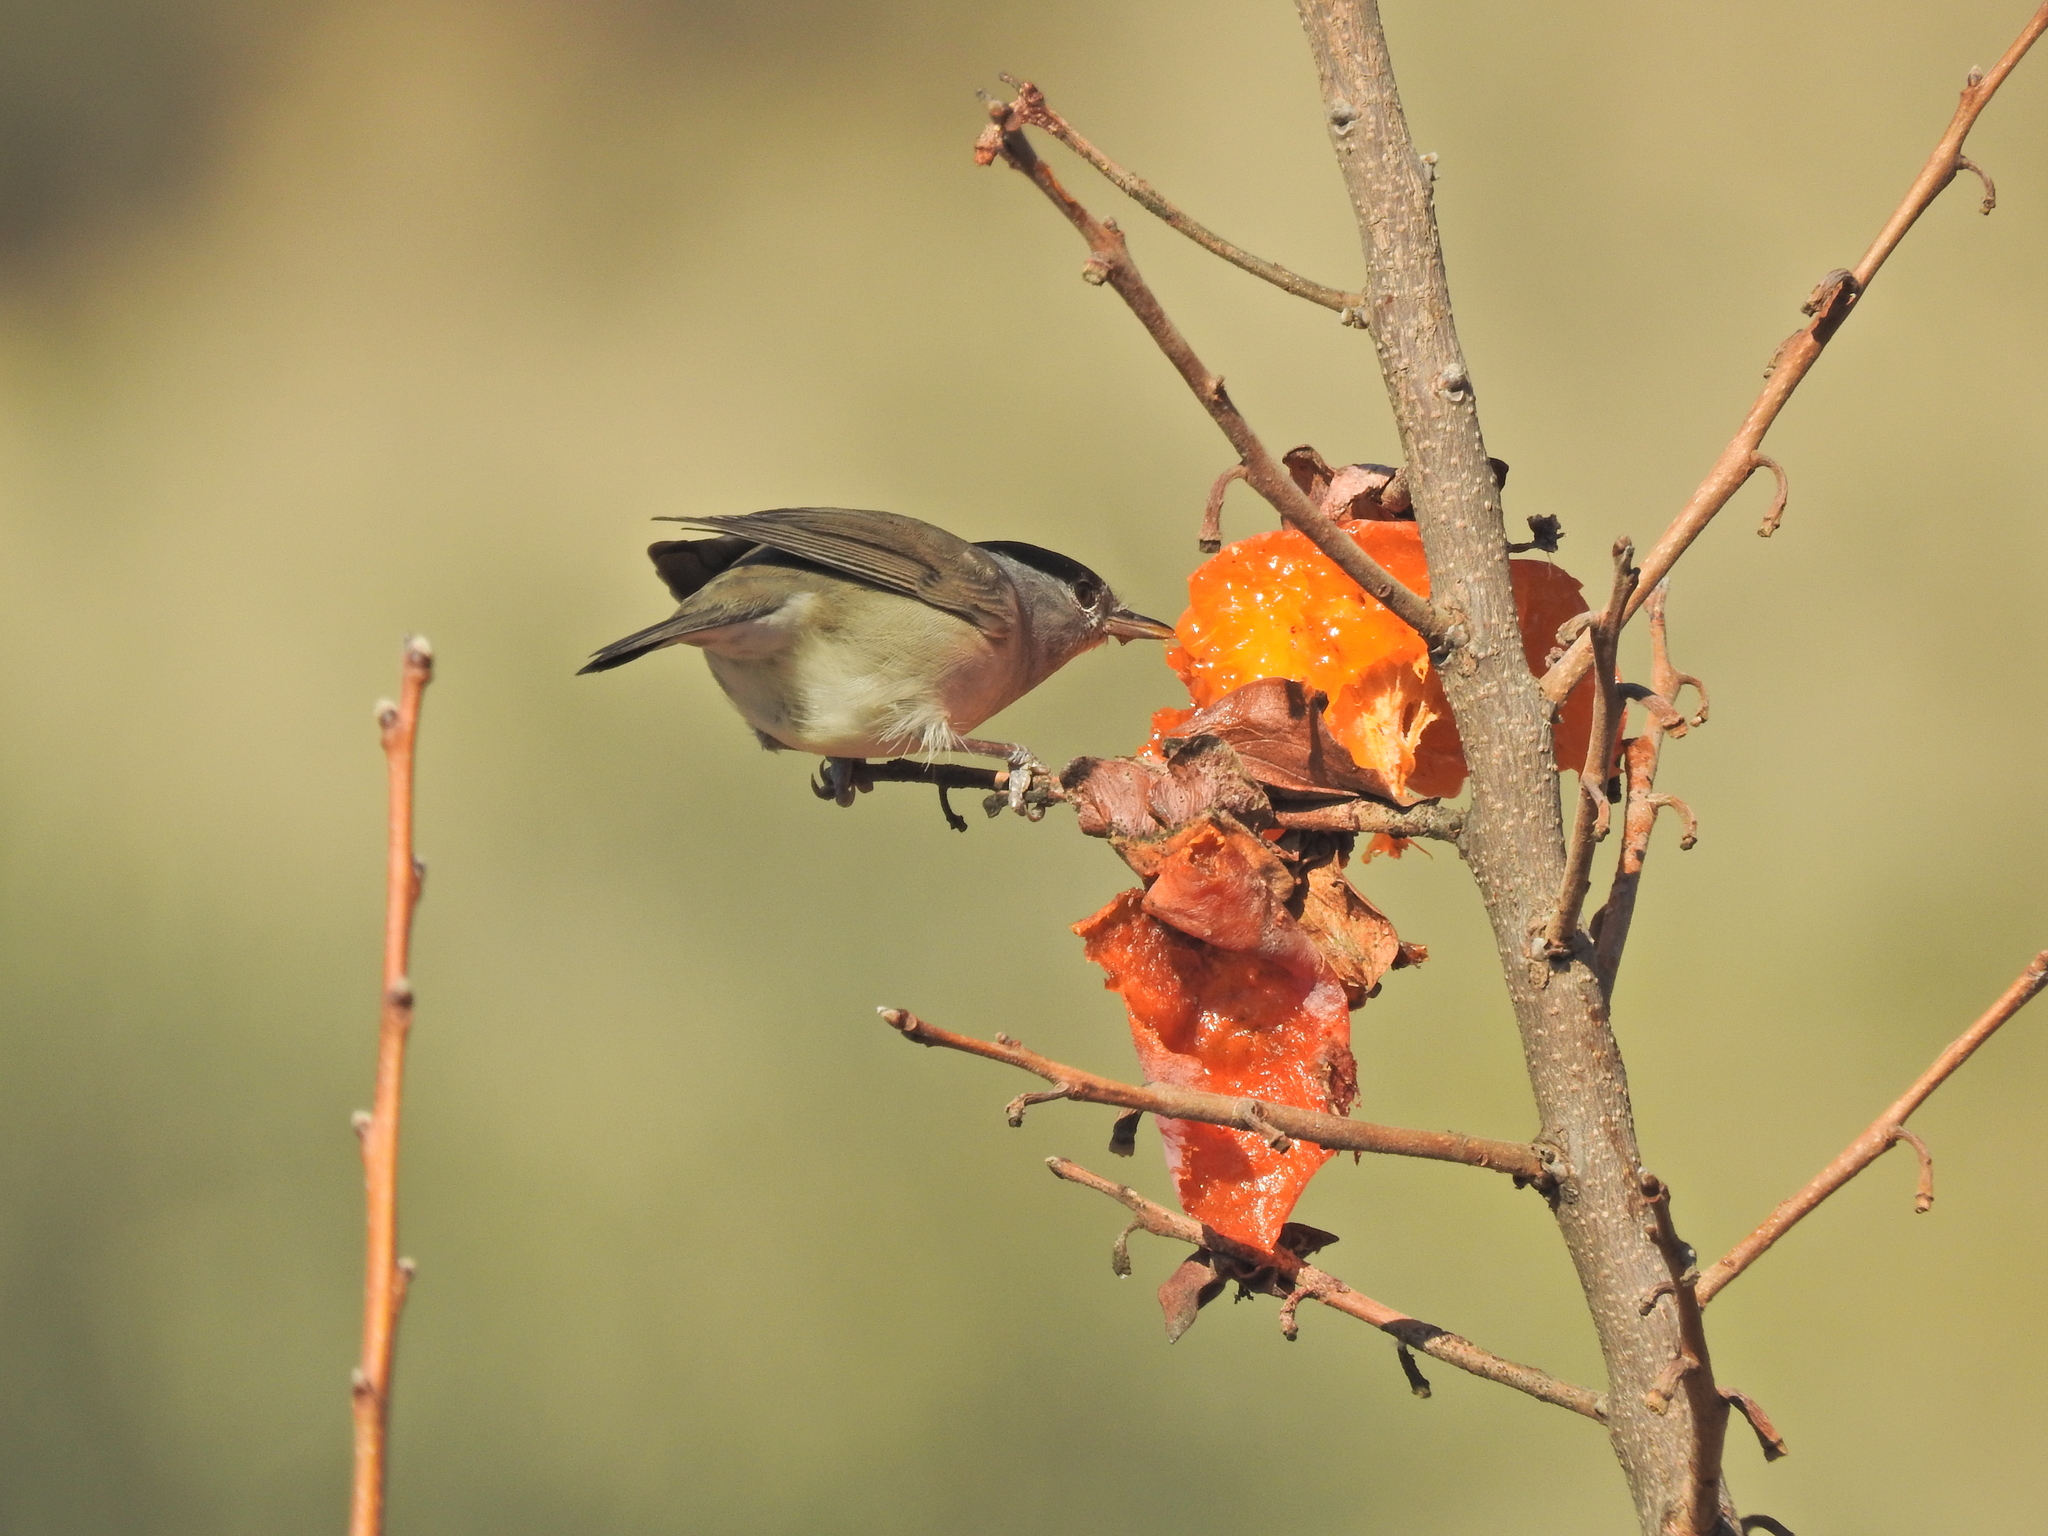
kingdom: Animalia
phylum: Chordata
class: Aves
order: Passeriformes
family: Sylviidae
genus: Sylvia
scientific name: Sylvia atricapilla
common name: Eurasian blackcap
